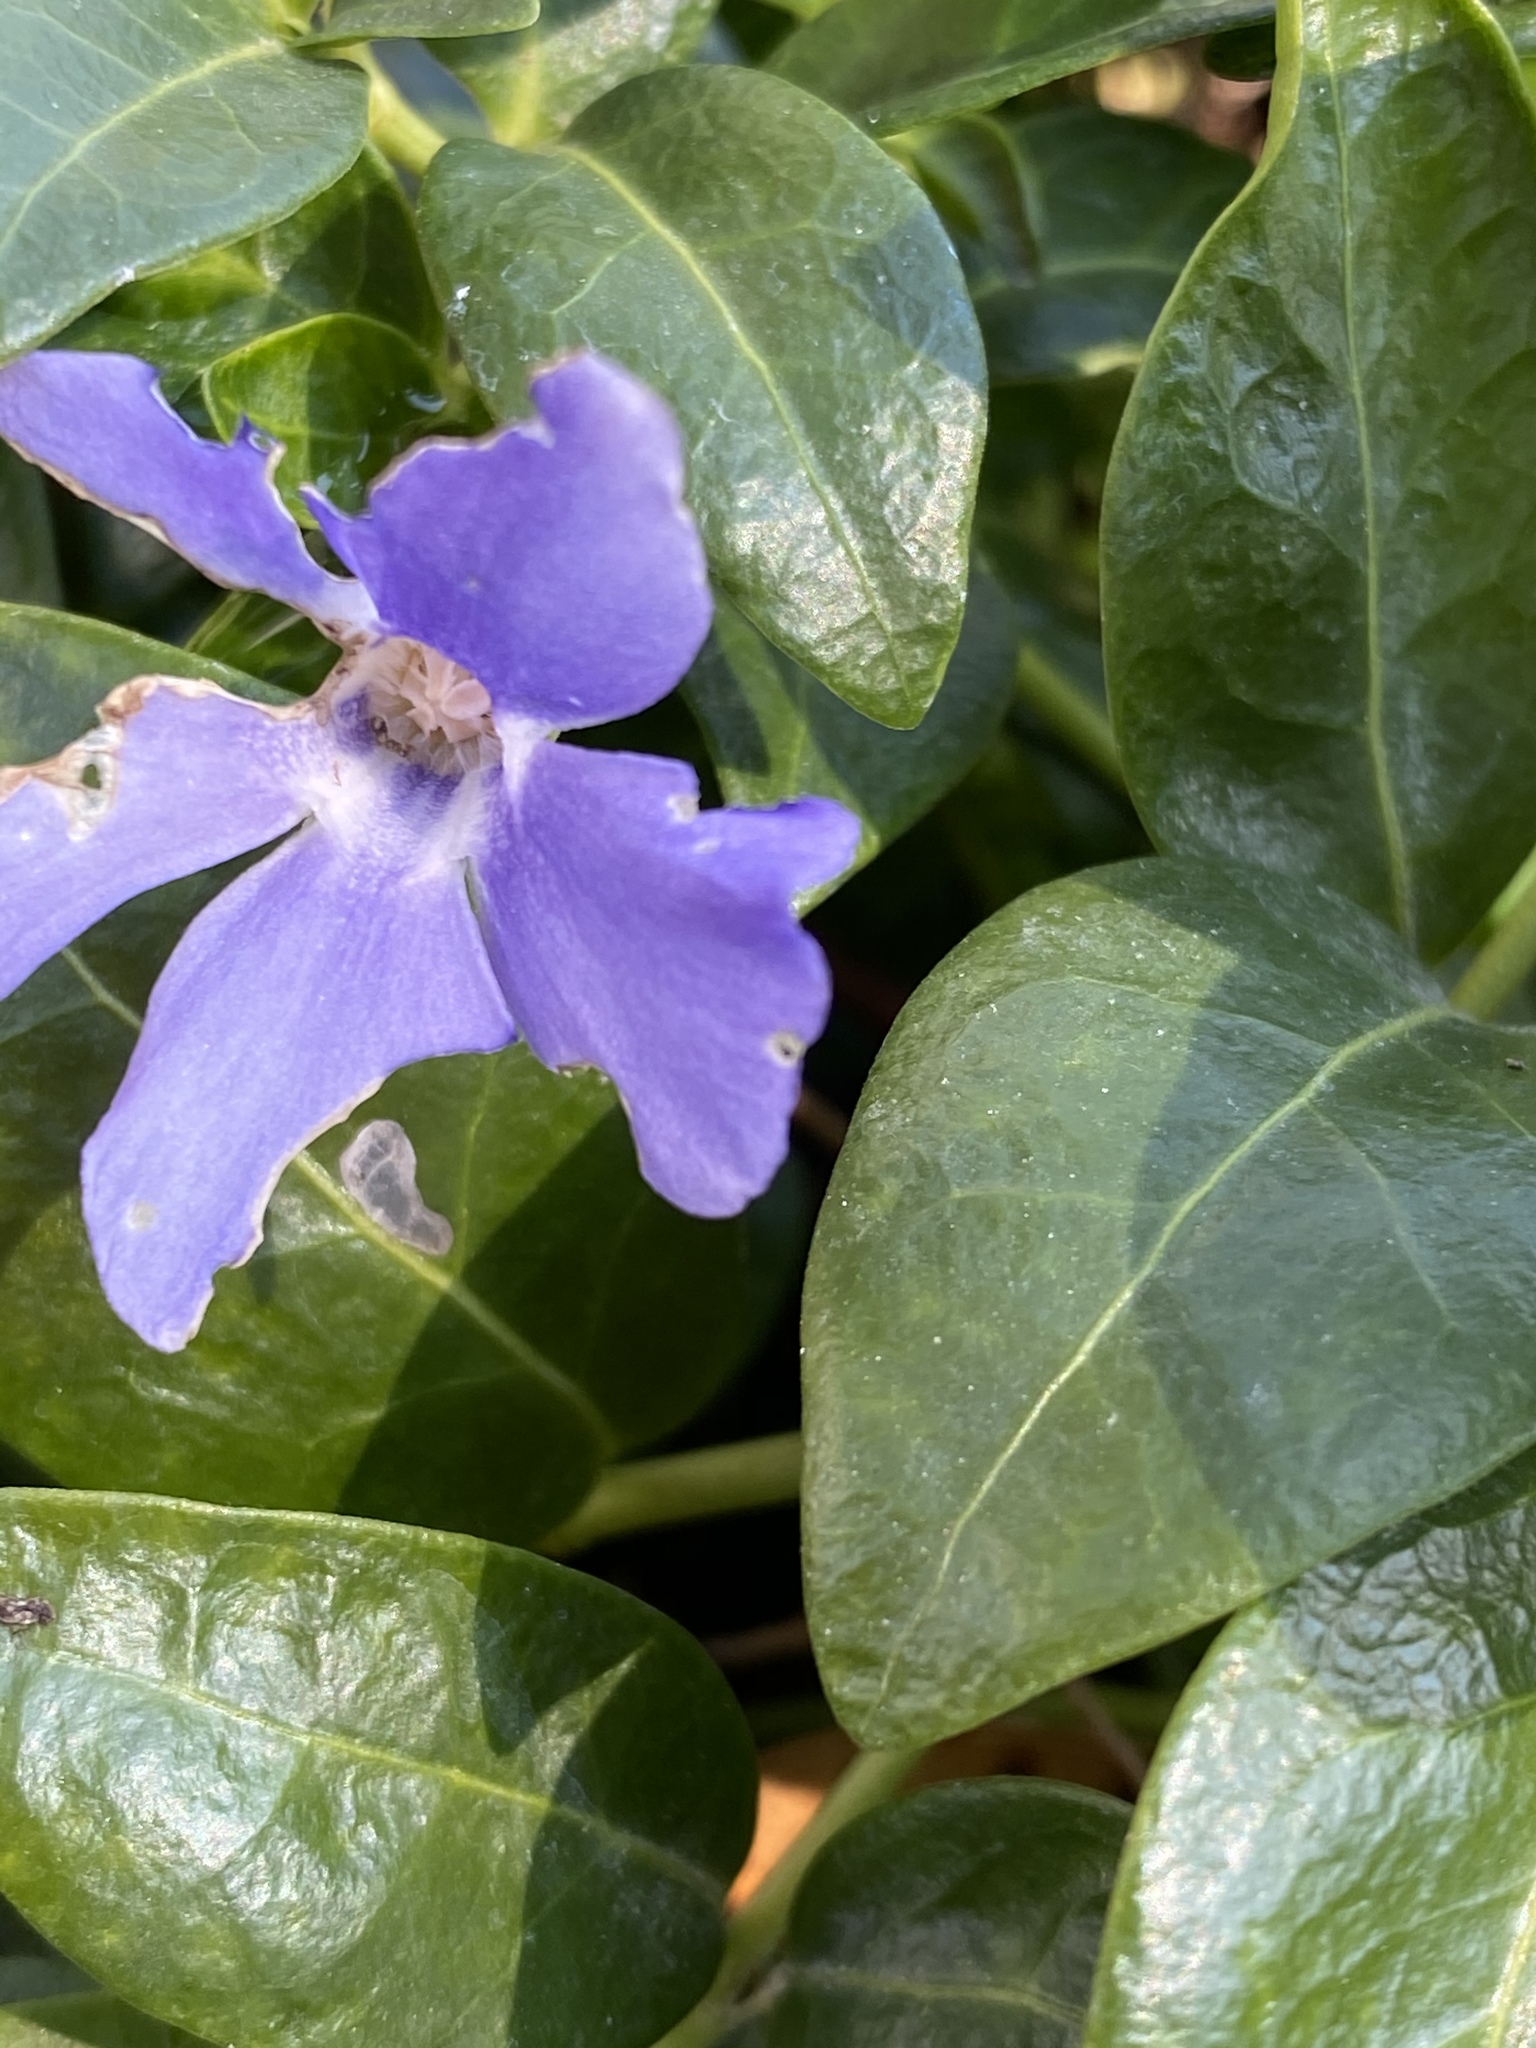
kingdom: Plantae
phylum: Tracheophyta
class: Magnoliopsida
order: Gentianales
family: Apocynaceae
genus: Vinca
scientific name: Vinca minor
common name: Lesser periwinkle
